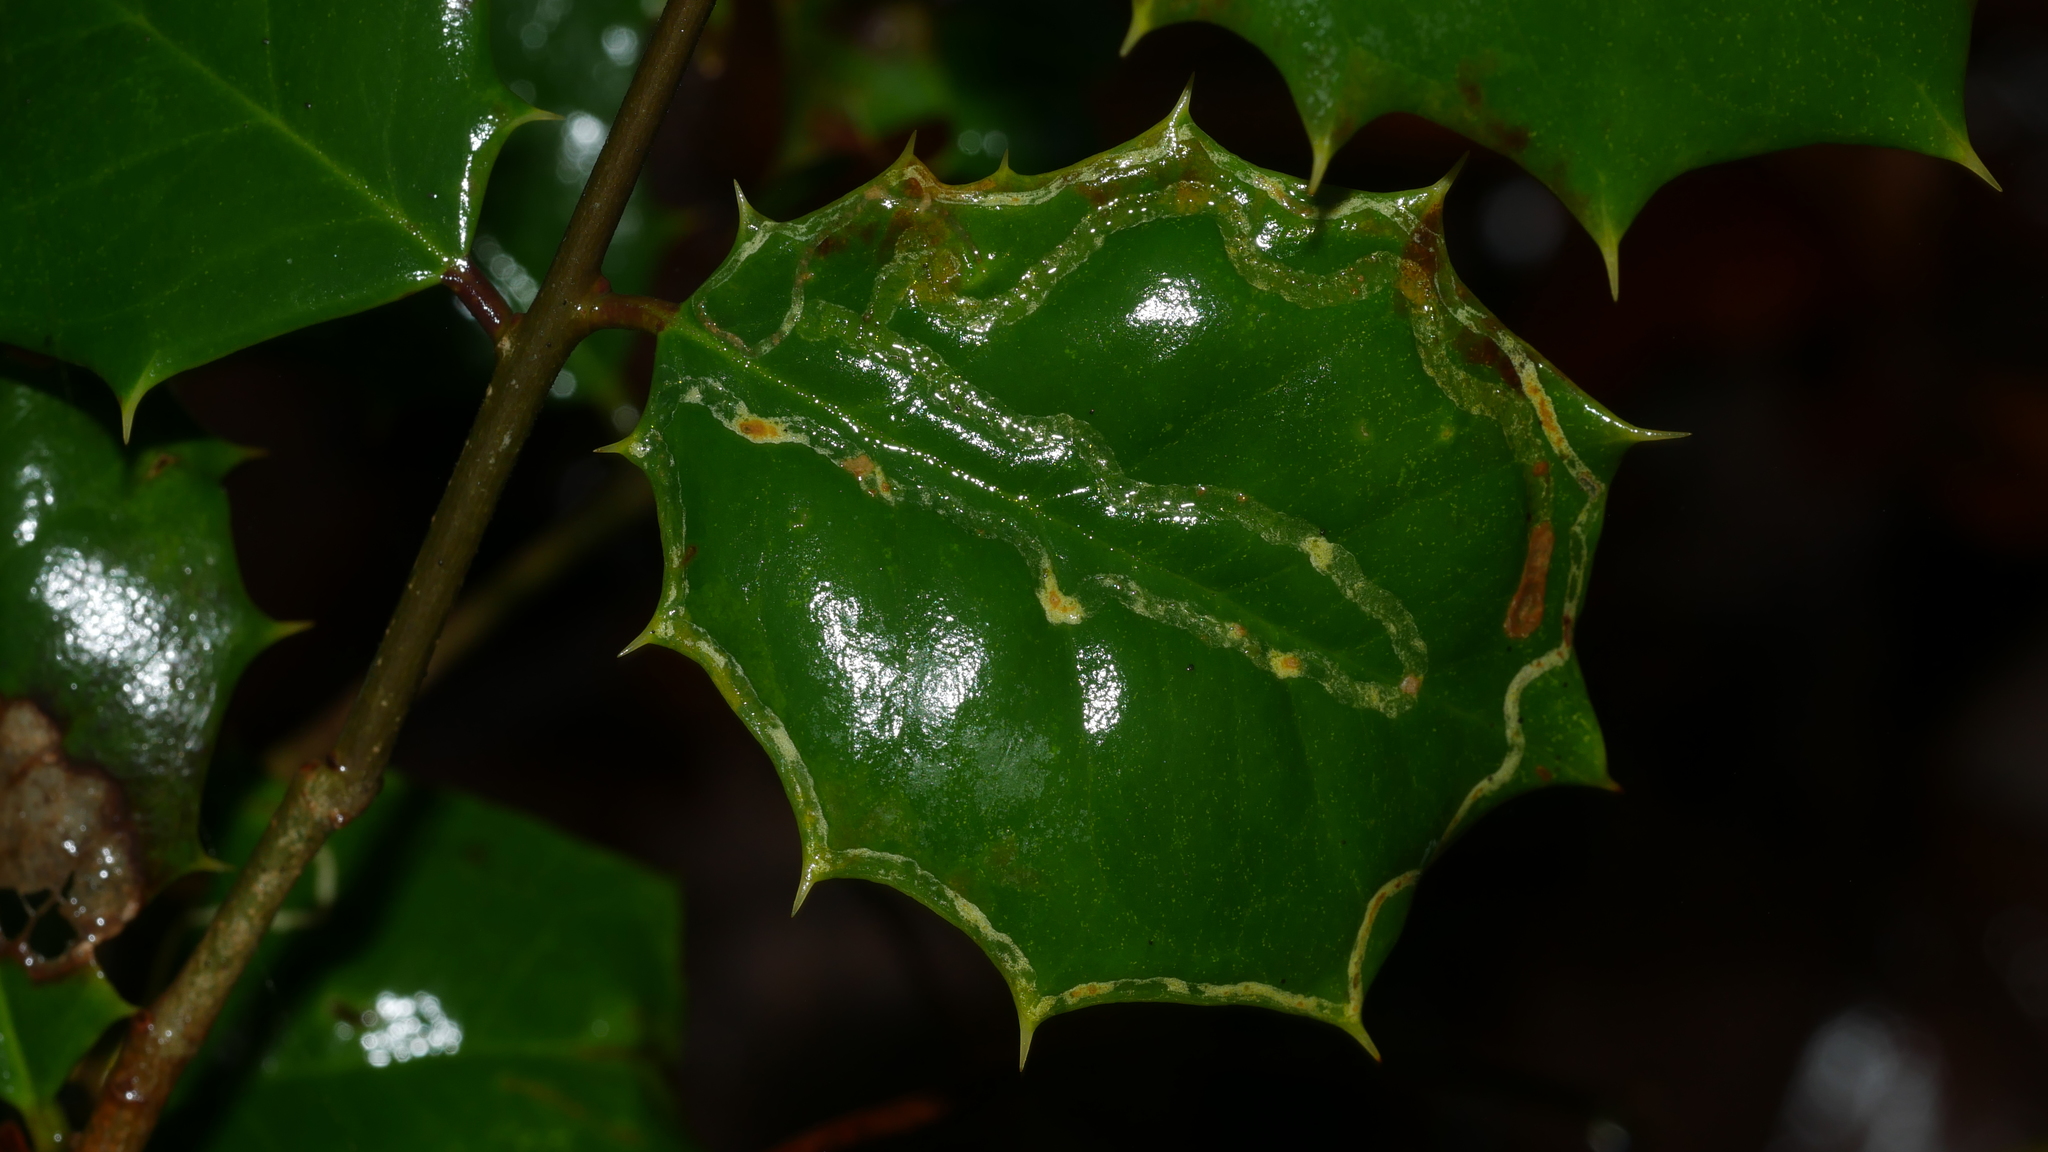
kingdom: Animalia
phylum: Arthropoda
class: Insecta
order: Diptera
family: Agromyzidae
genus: Phytomyza
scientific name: Phytomyza opacae
